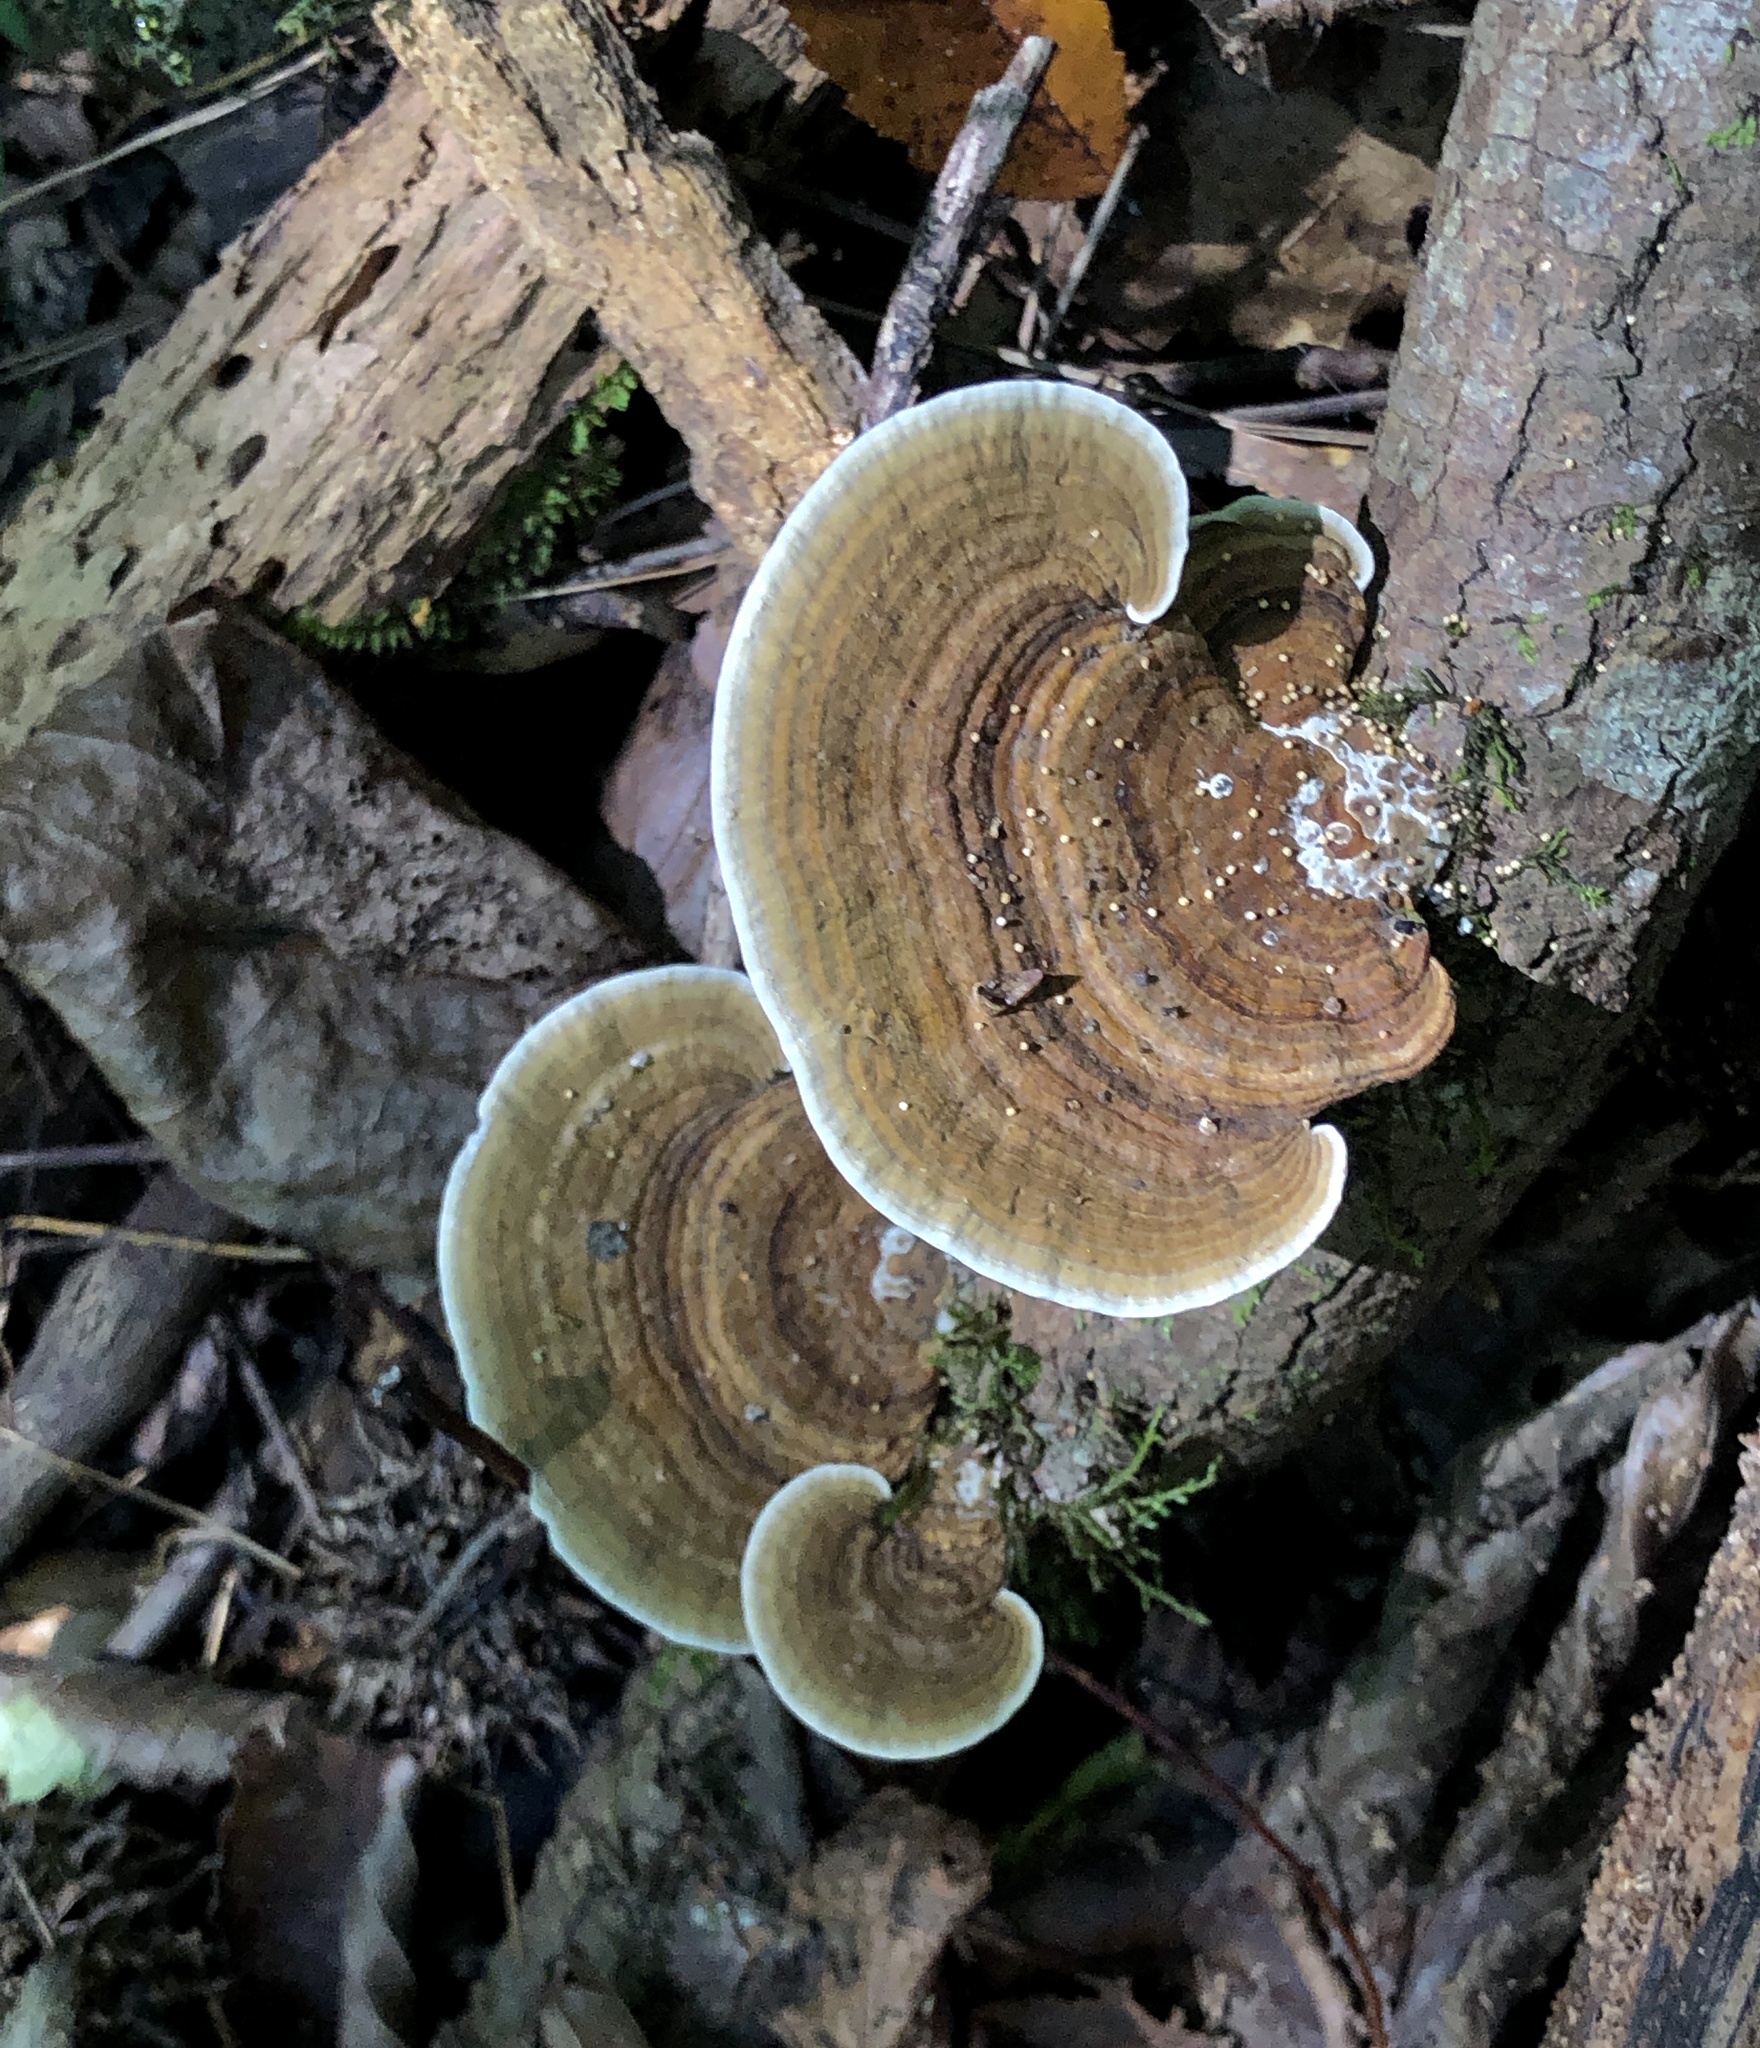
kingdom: Fungi
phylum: Basidiomycota
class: Agaricomycetes
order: Polyporales
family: Polyporaceae
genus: Daedaleopsis
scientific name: Daedaleopsis confragosa
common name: Blushing bracket
